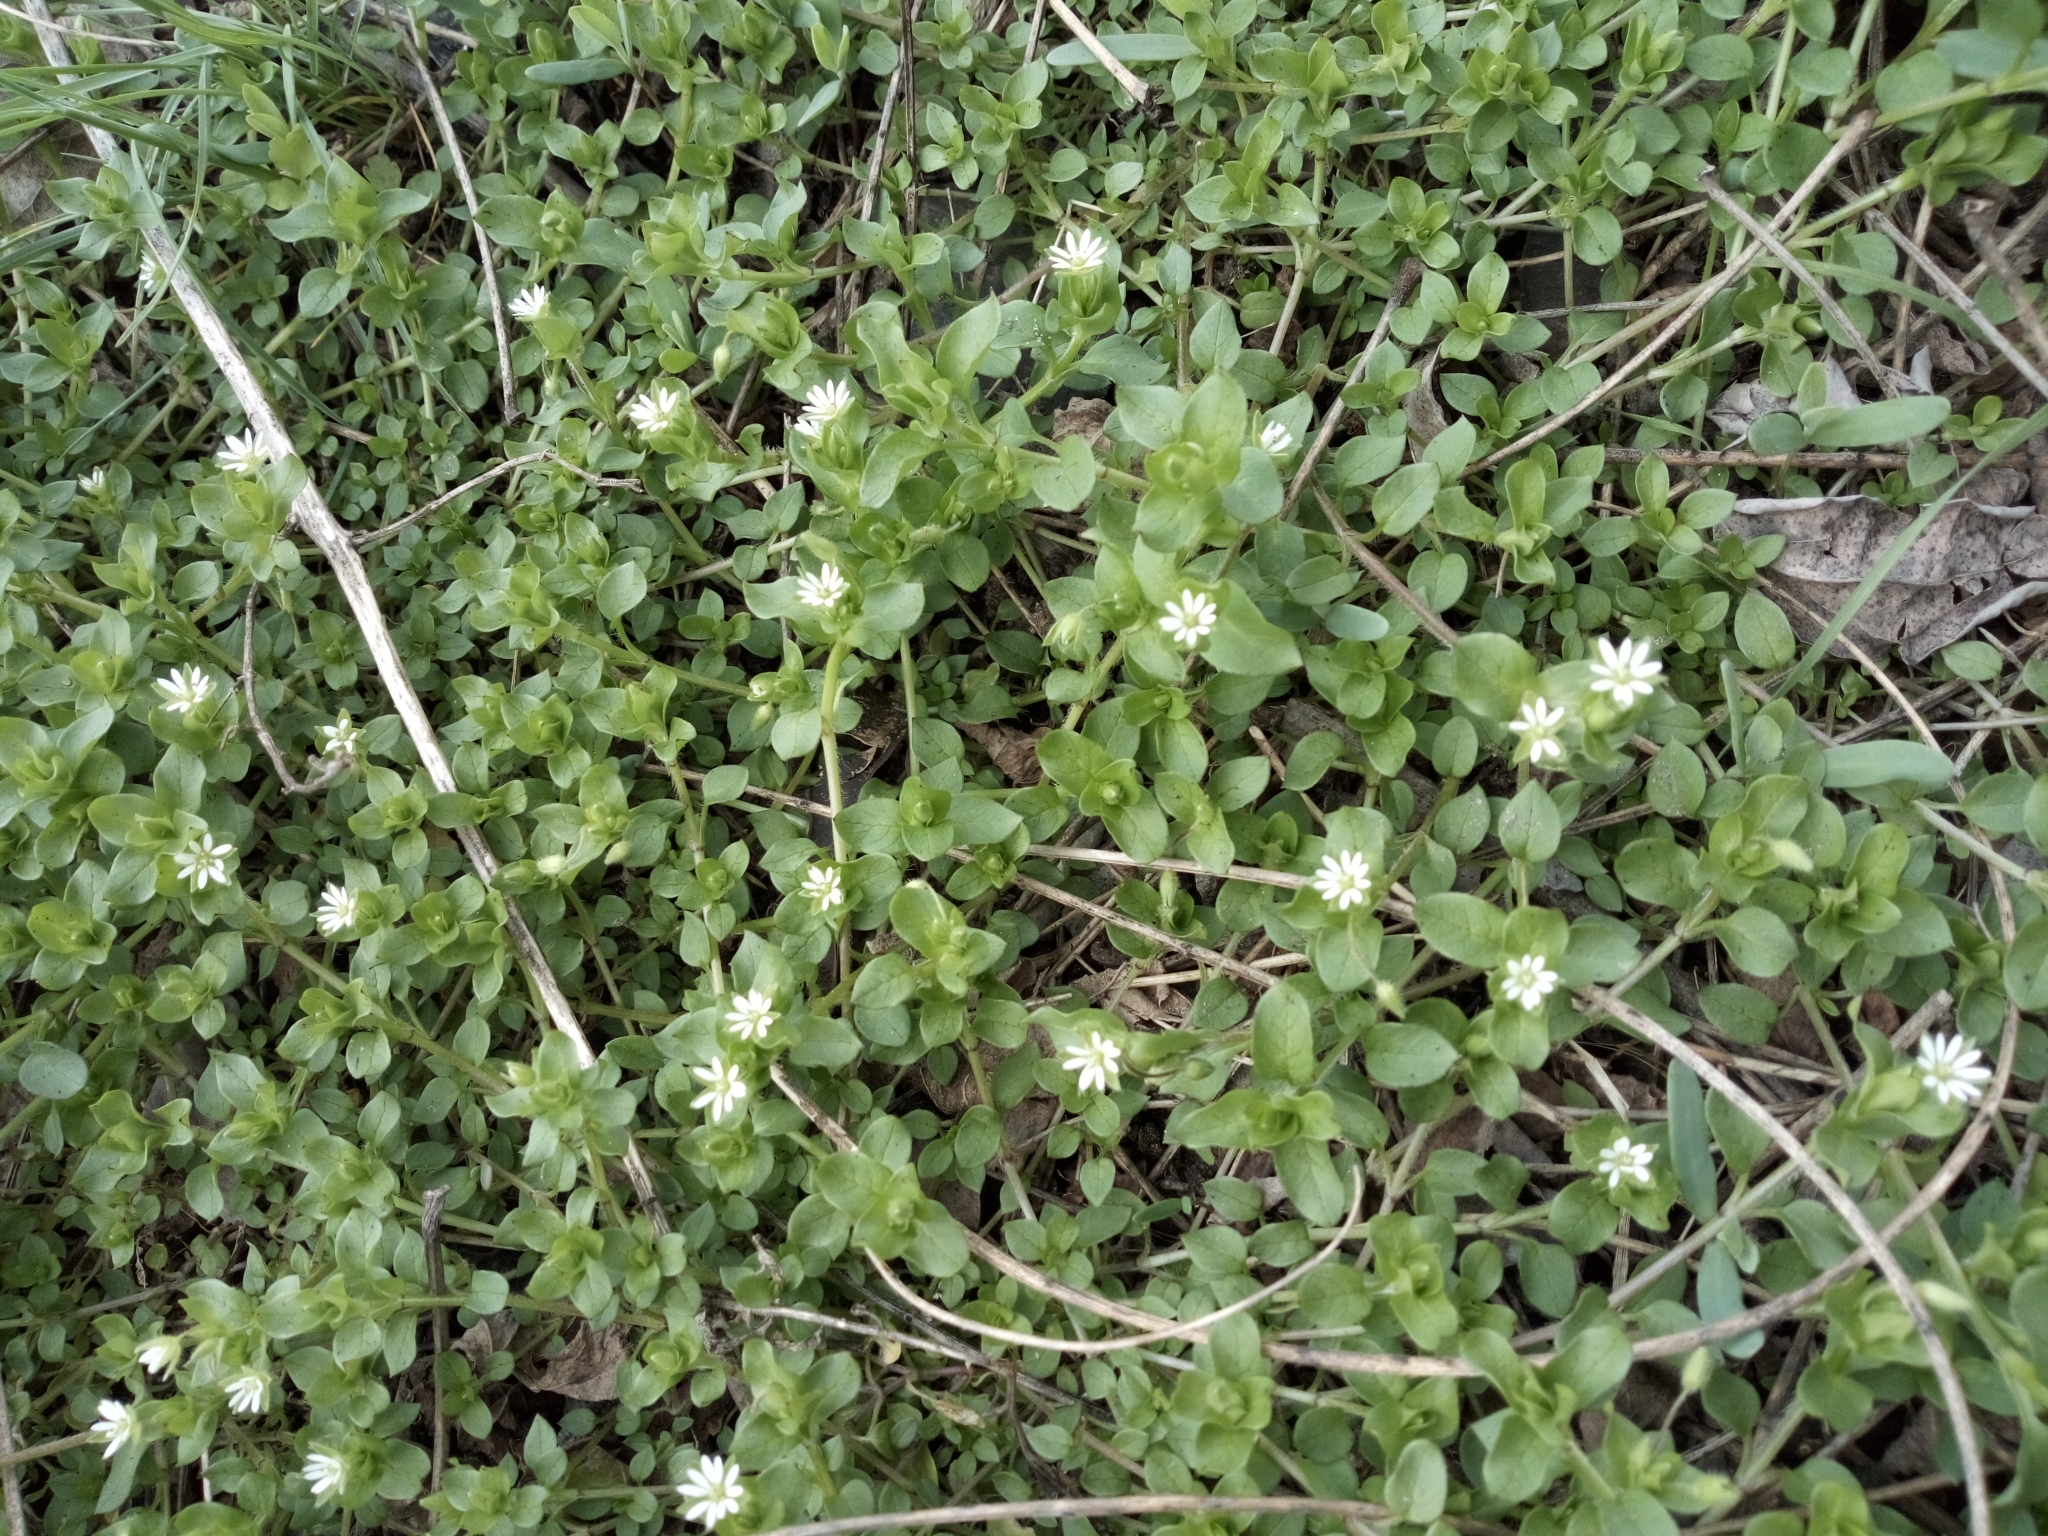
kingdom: Plantae
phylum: Tracheophyta
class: Magnoliopsida
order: Caryophyllales
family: Caryophyllaceae
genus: Stellaria
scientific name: Stellaria media
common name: Common chickweed
